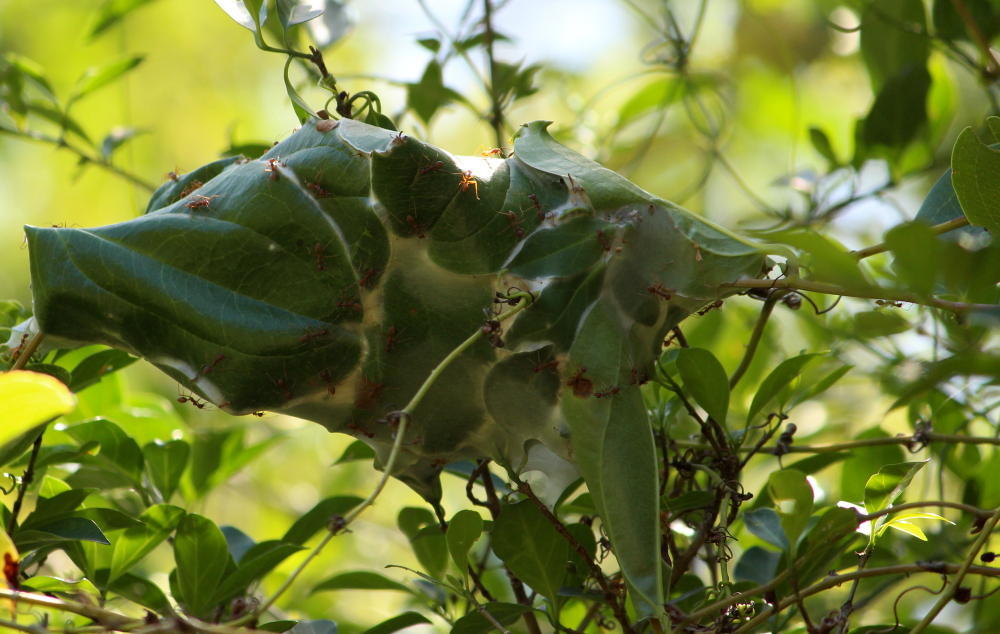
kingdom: Animalia
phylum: Arthropoda
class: Insecta
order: Hymenoptera
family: Formicidae
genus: Oecophylla
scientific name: Oecophylla longinoda
